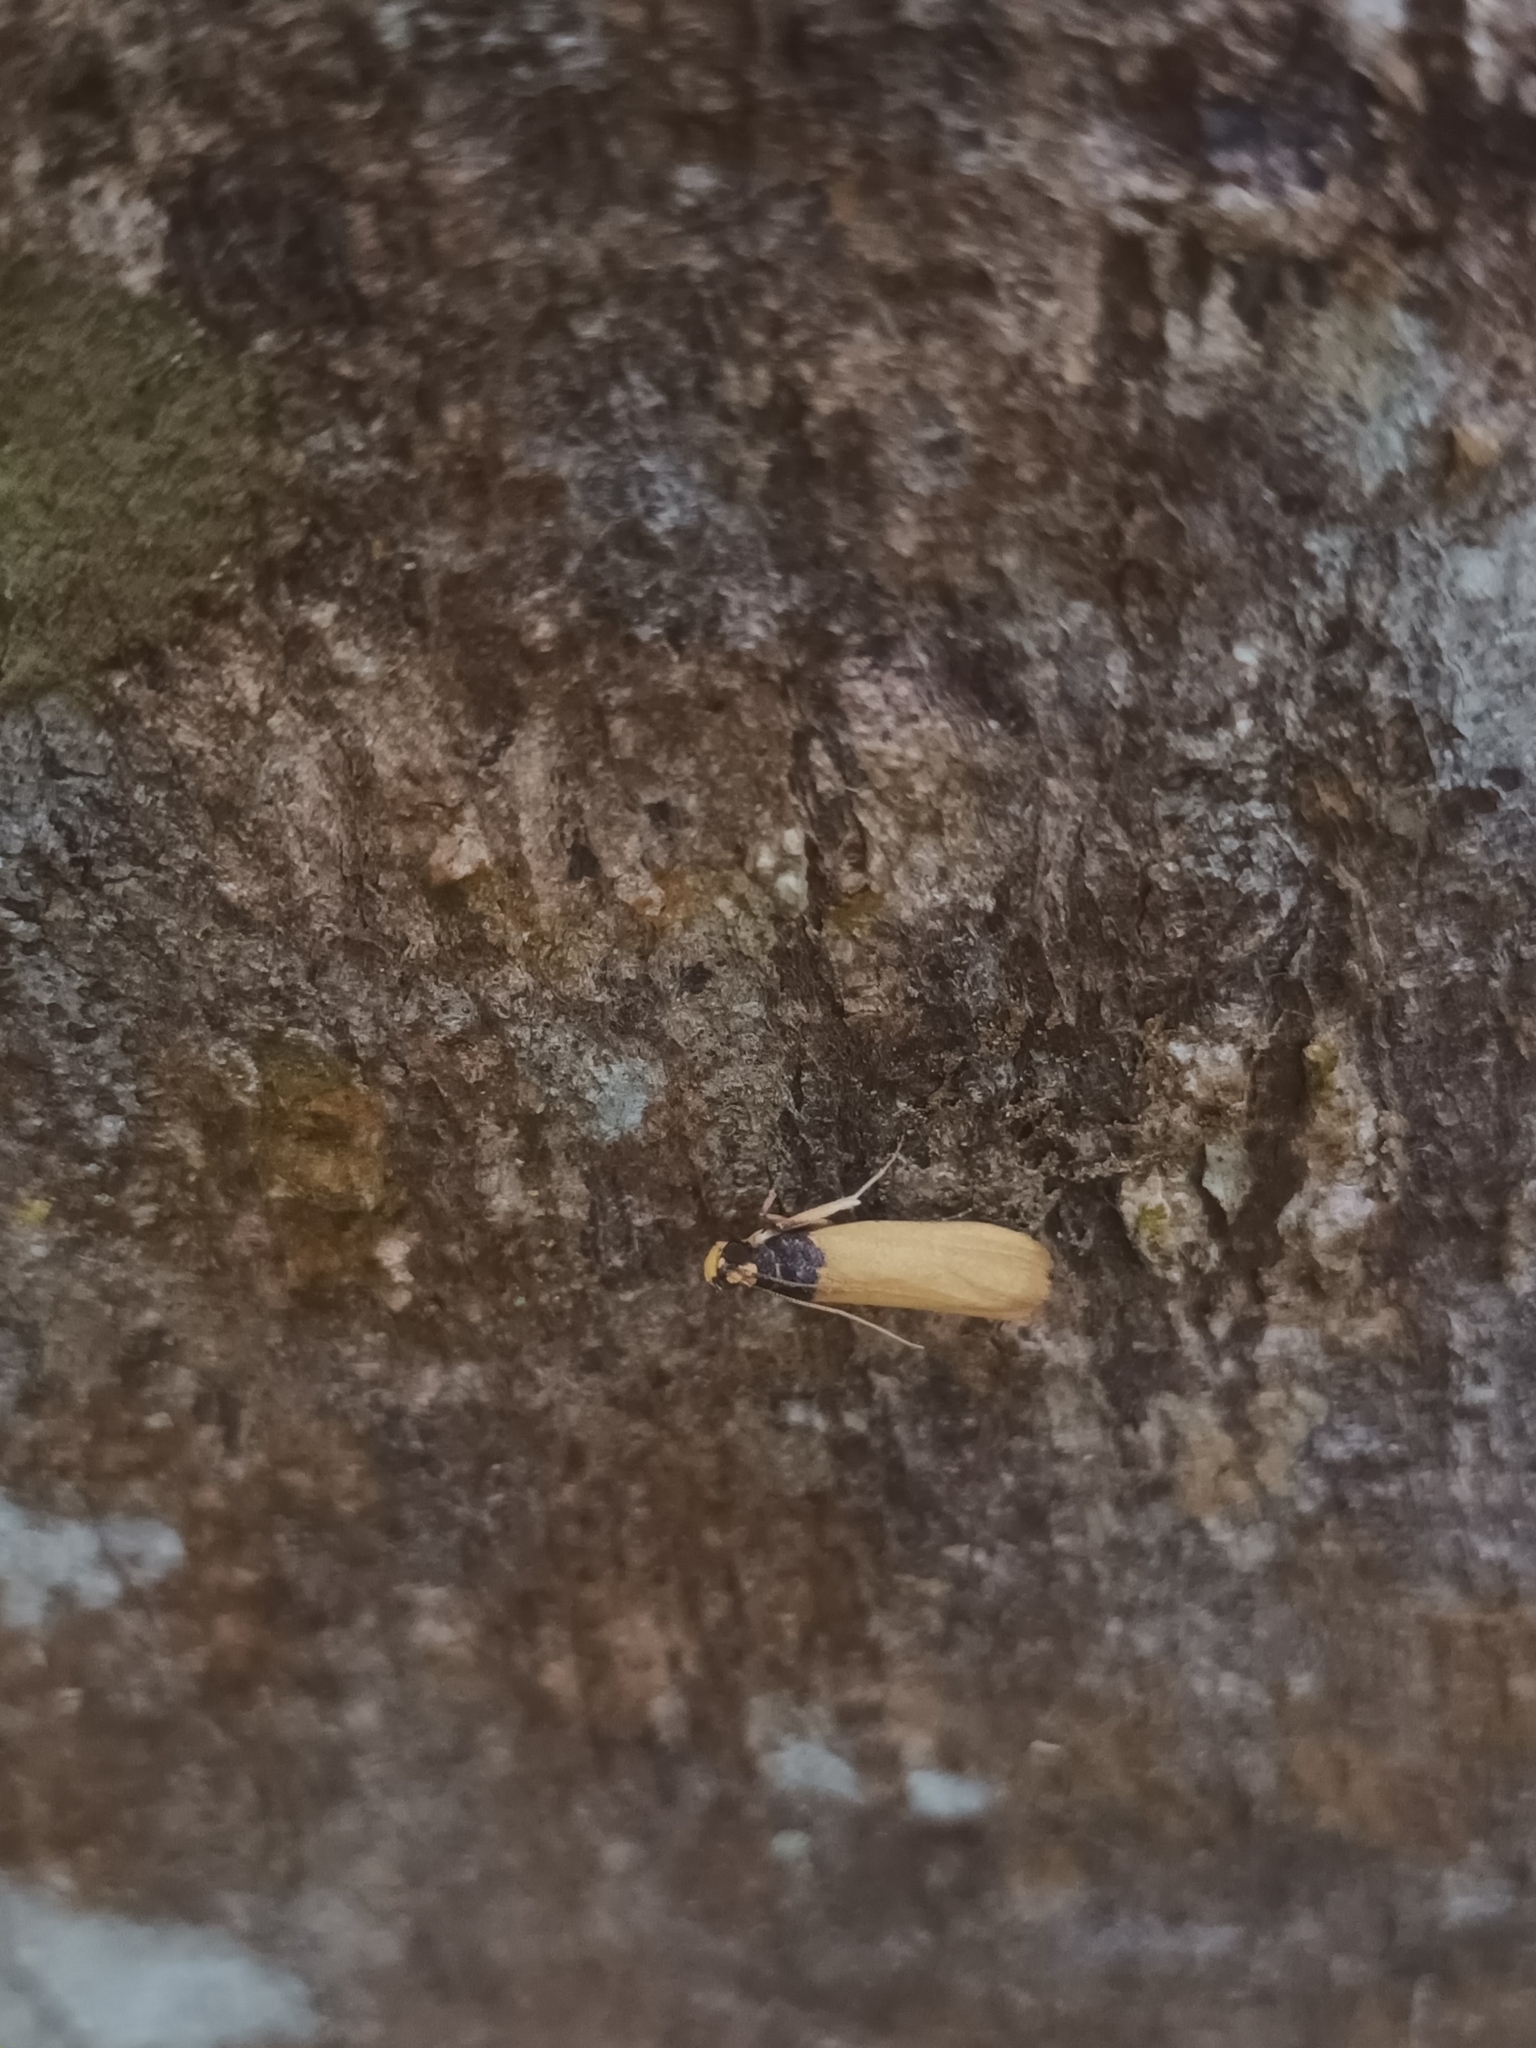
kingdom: Animalia
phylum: Arthropoda
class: Insecta
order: Lepidoptera
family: Pyralidae
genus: Volobilis
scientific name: Volobilis chloropterella
